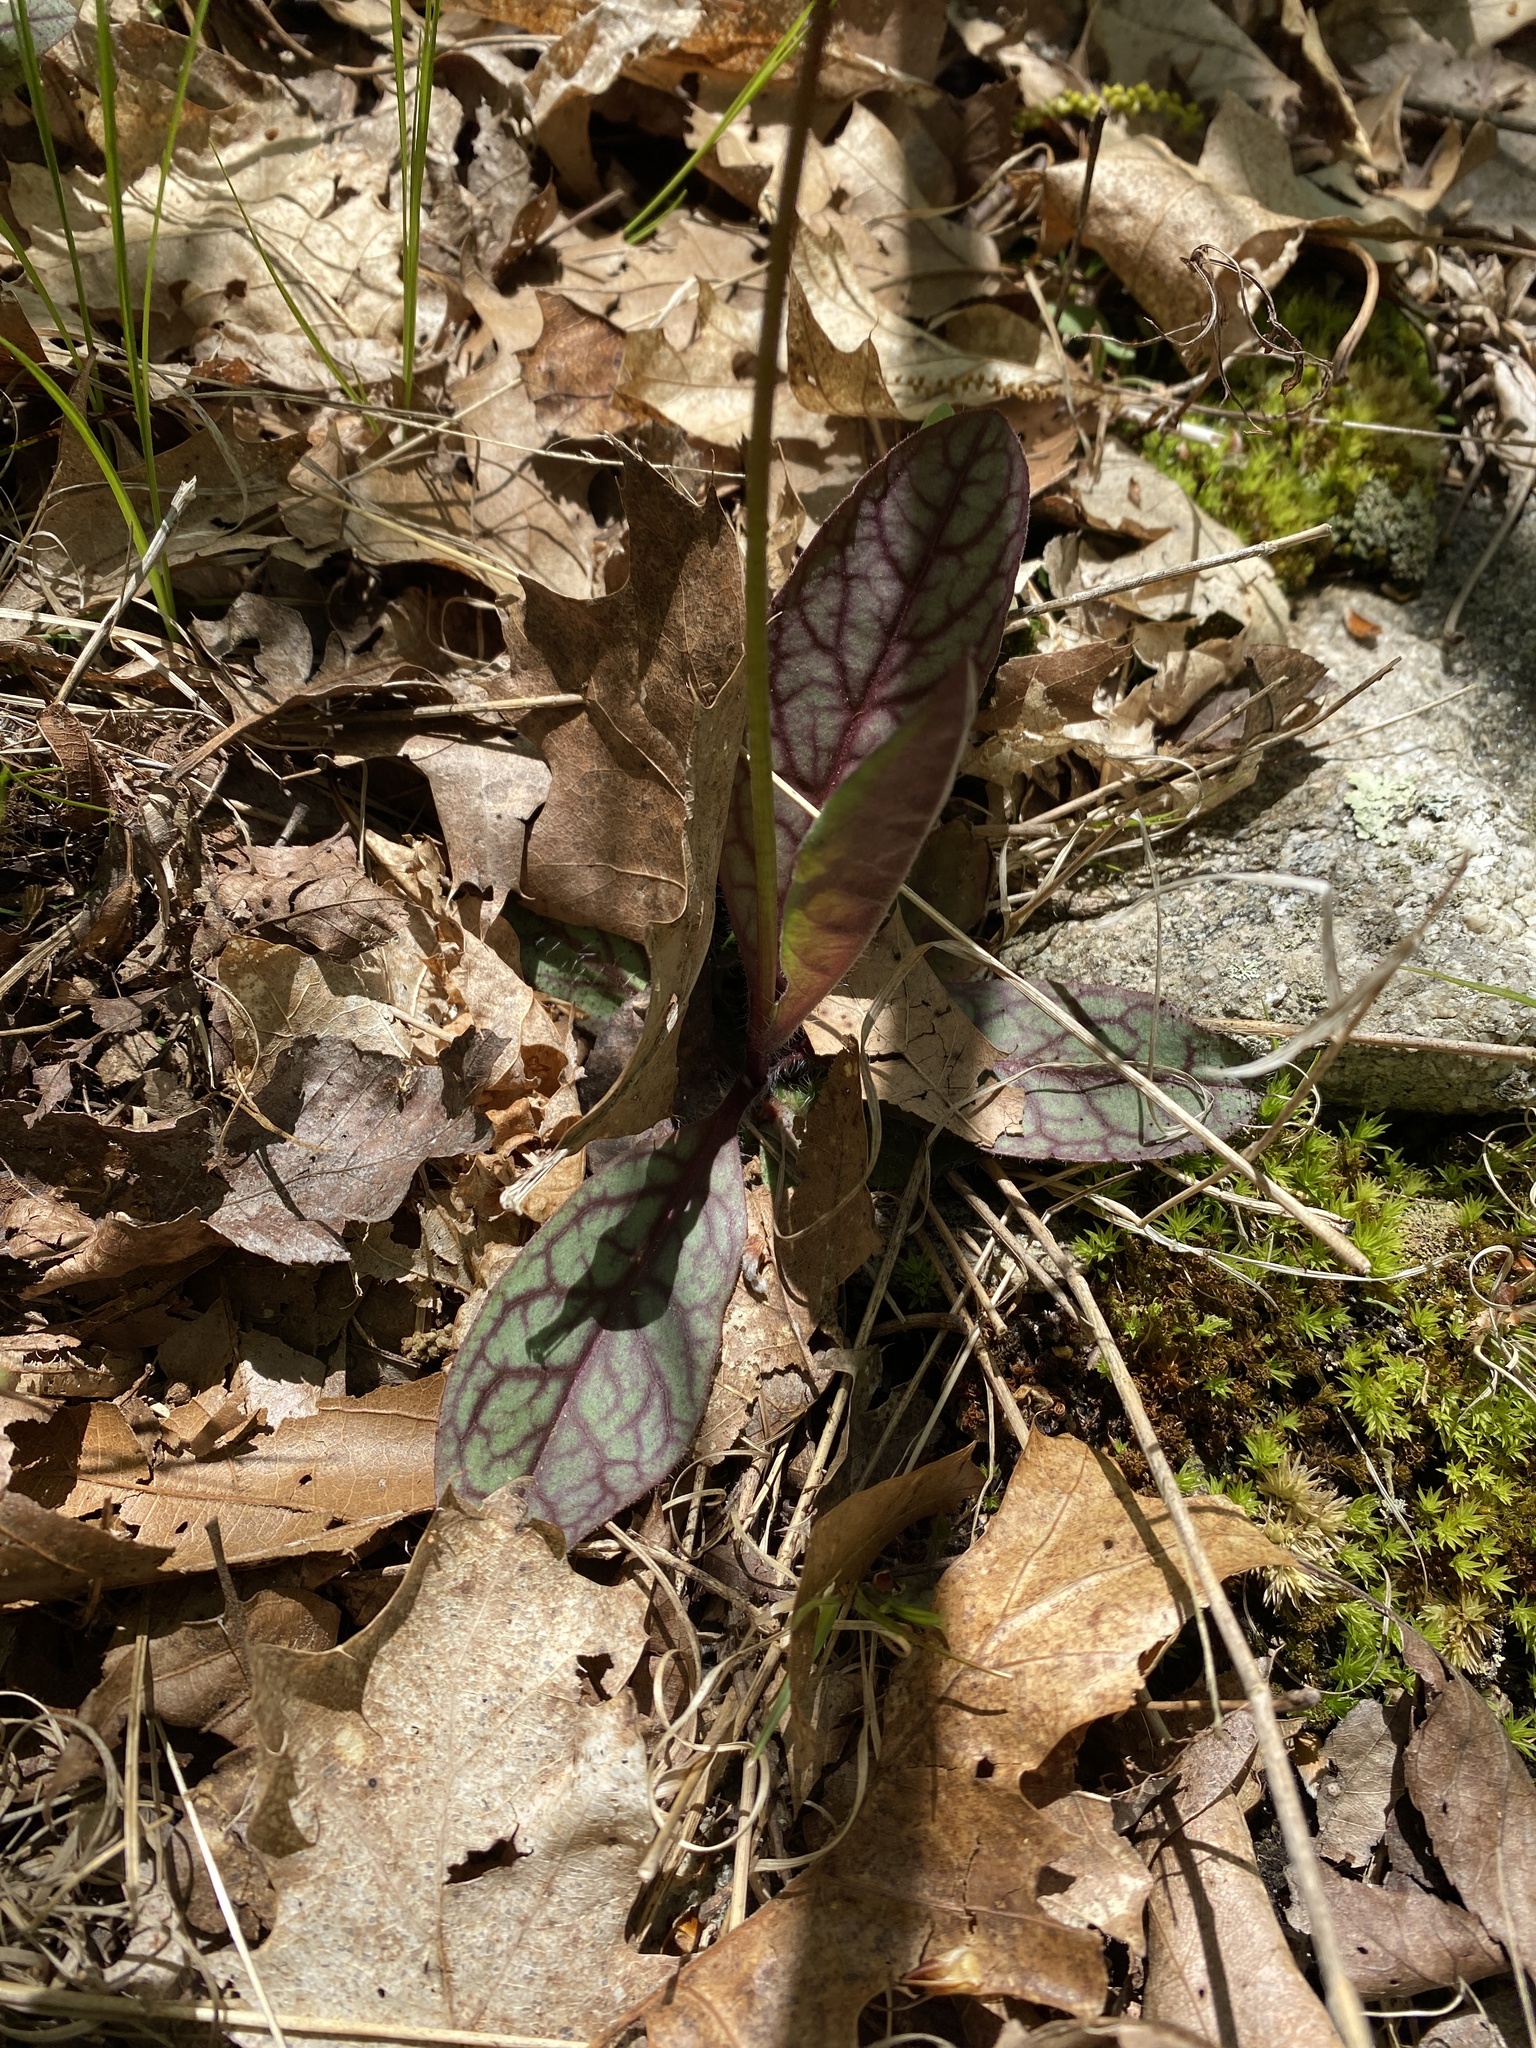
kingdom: Plantae
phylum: Tracheophyta
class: Magnoliopsida
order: Asterales
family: Asteraceae
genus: Hieracium
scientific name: Hieracium venosum
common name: Rattlesnake hawkweed
